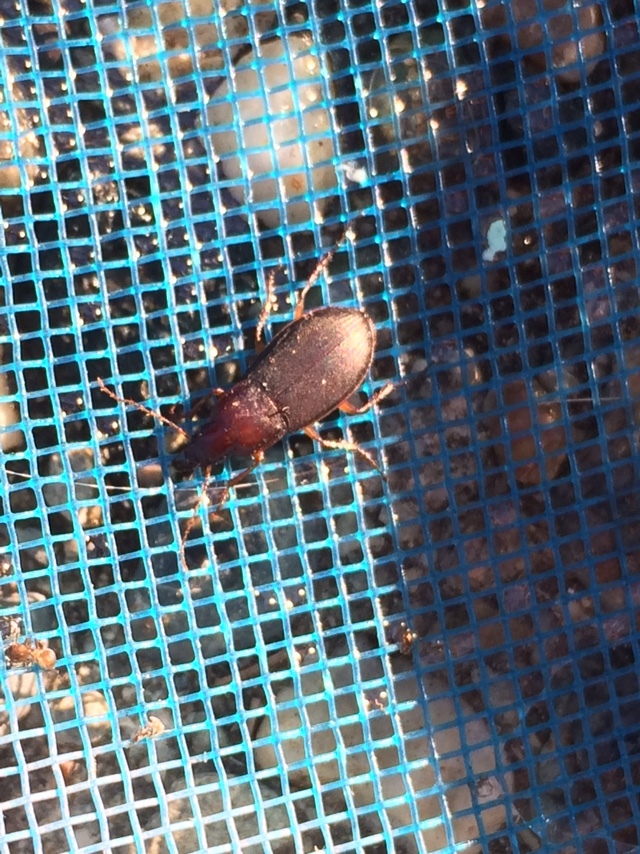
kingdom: Animalia
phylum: Arthropoda
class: Insecta
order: Coleoptera
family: Carabidae
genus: Calathus
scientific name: Calathus ruficollis
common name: Red-collared harp ground beetle
